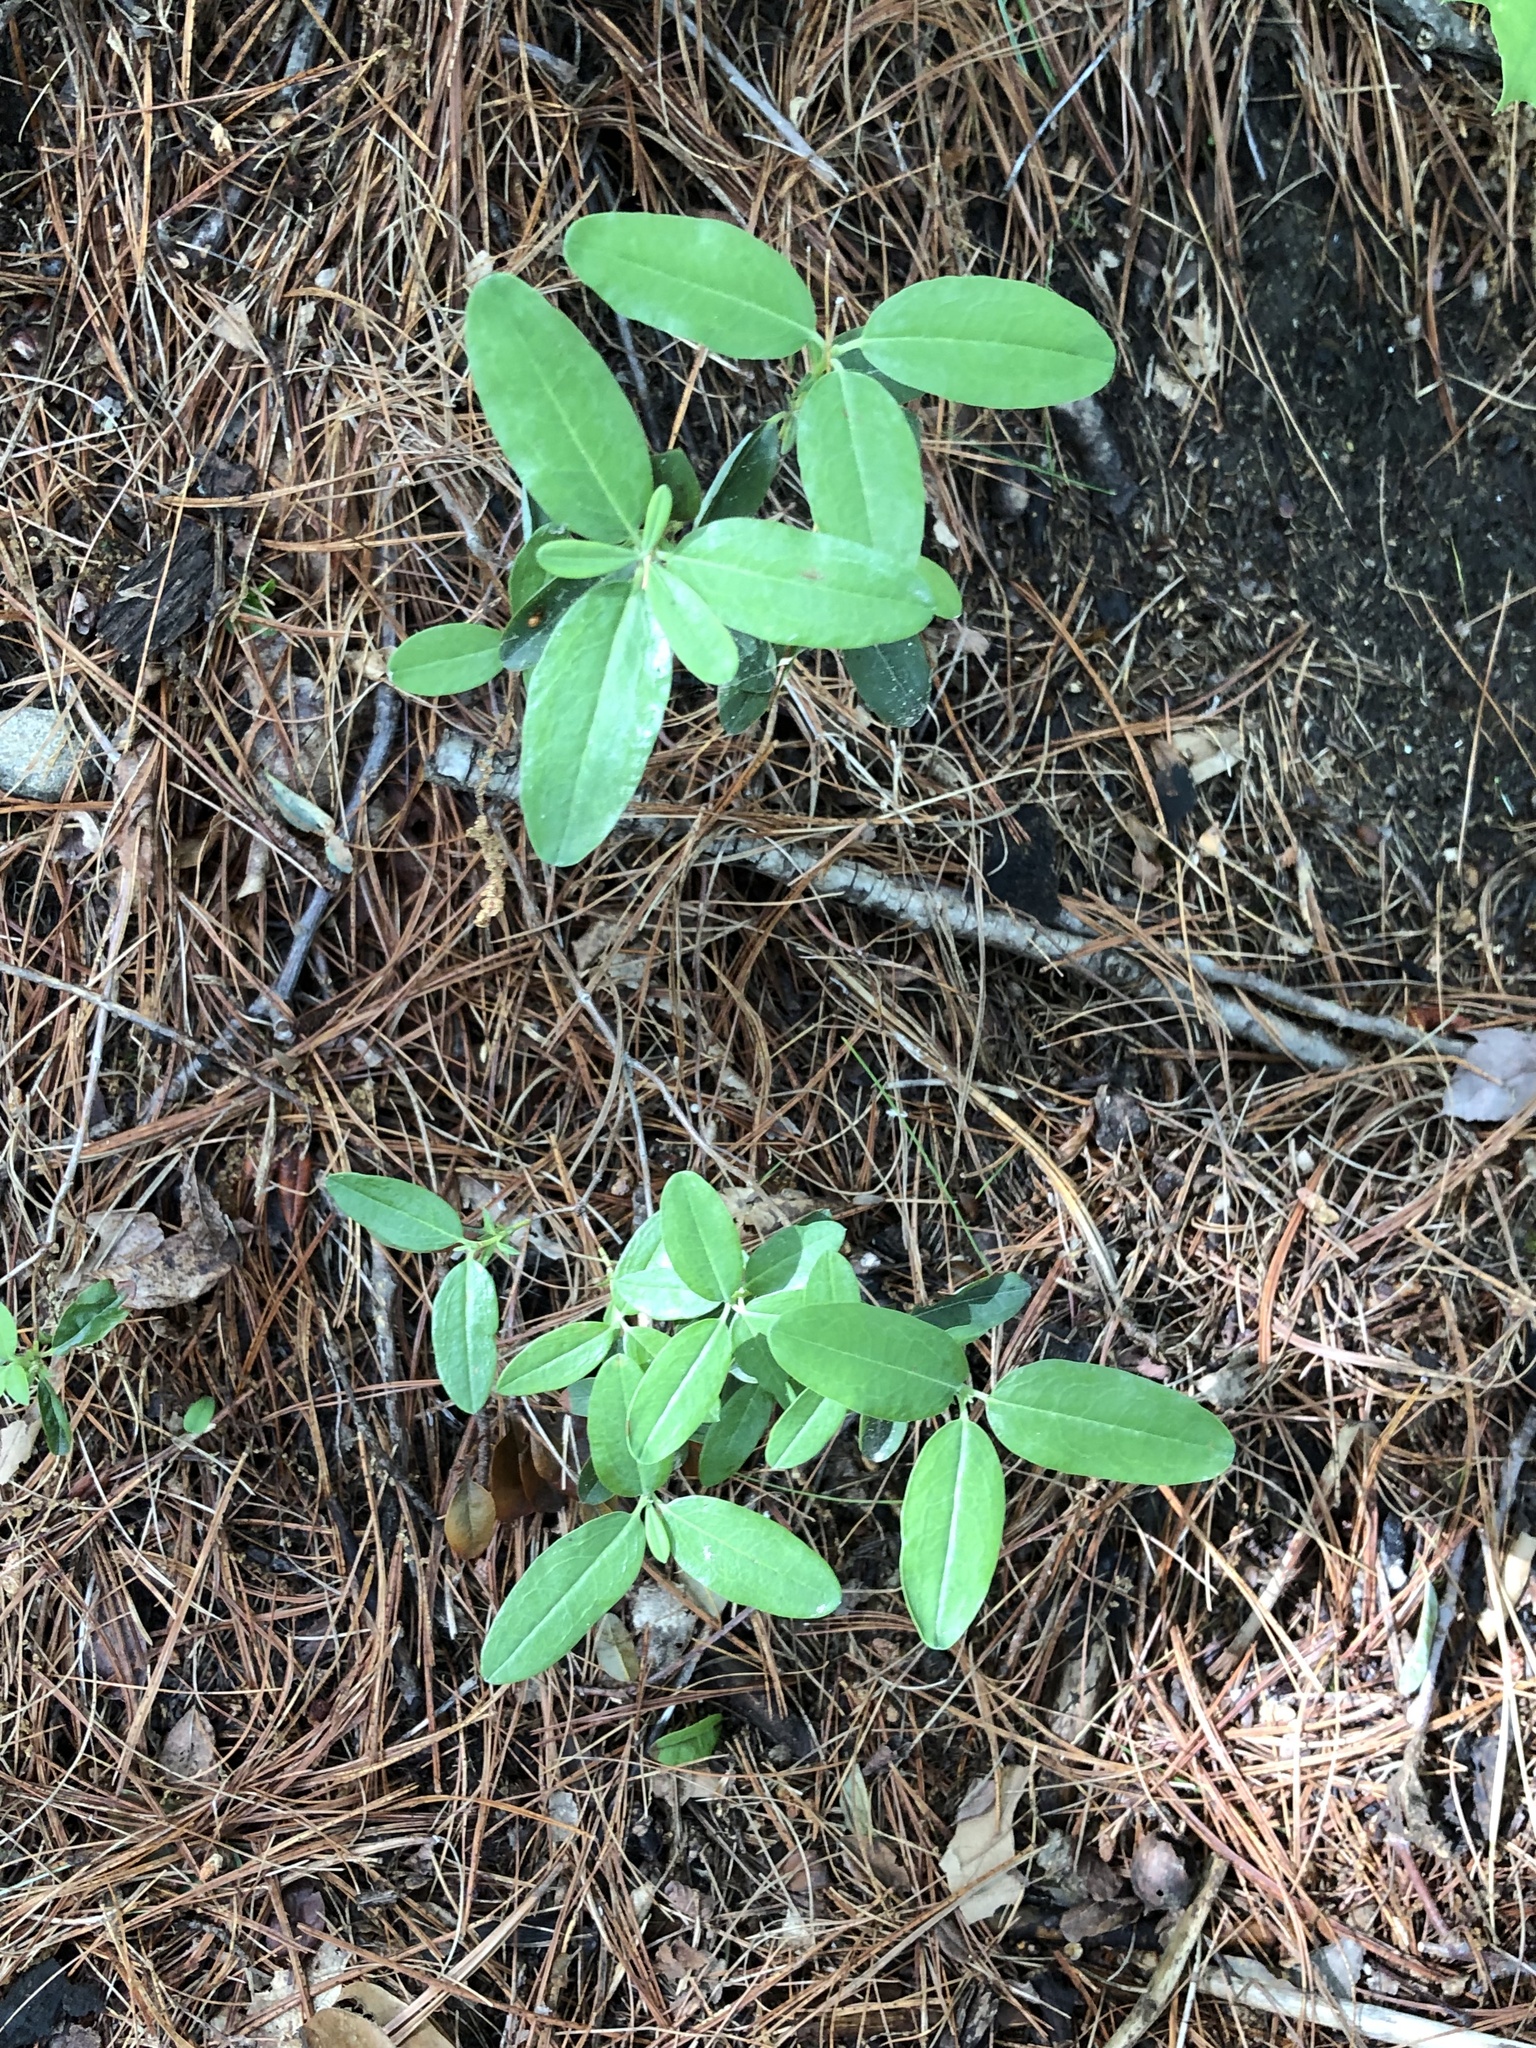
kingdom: Plantae
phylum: Tracheophyta
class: Magnoliopsida
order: Ericales
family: Ericaceae
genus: Kalmia
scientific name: Kalmia angustifolia
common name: Sheep-laurel
